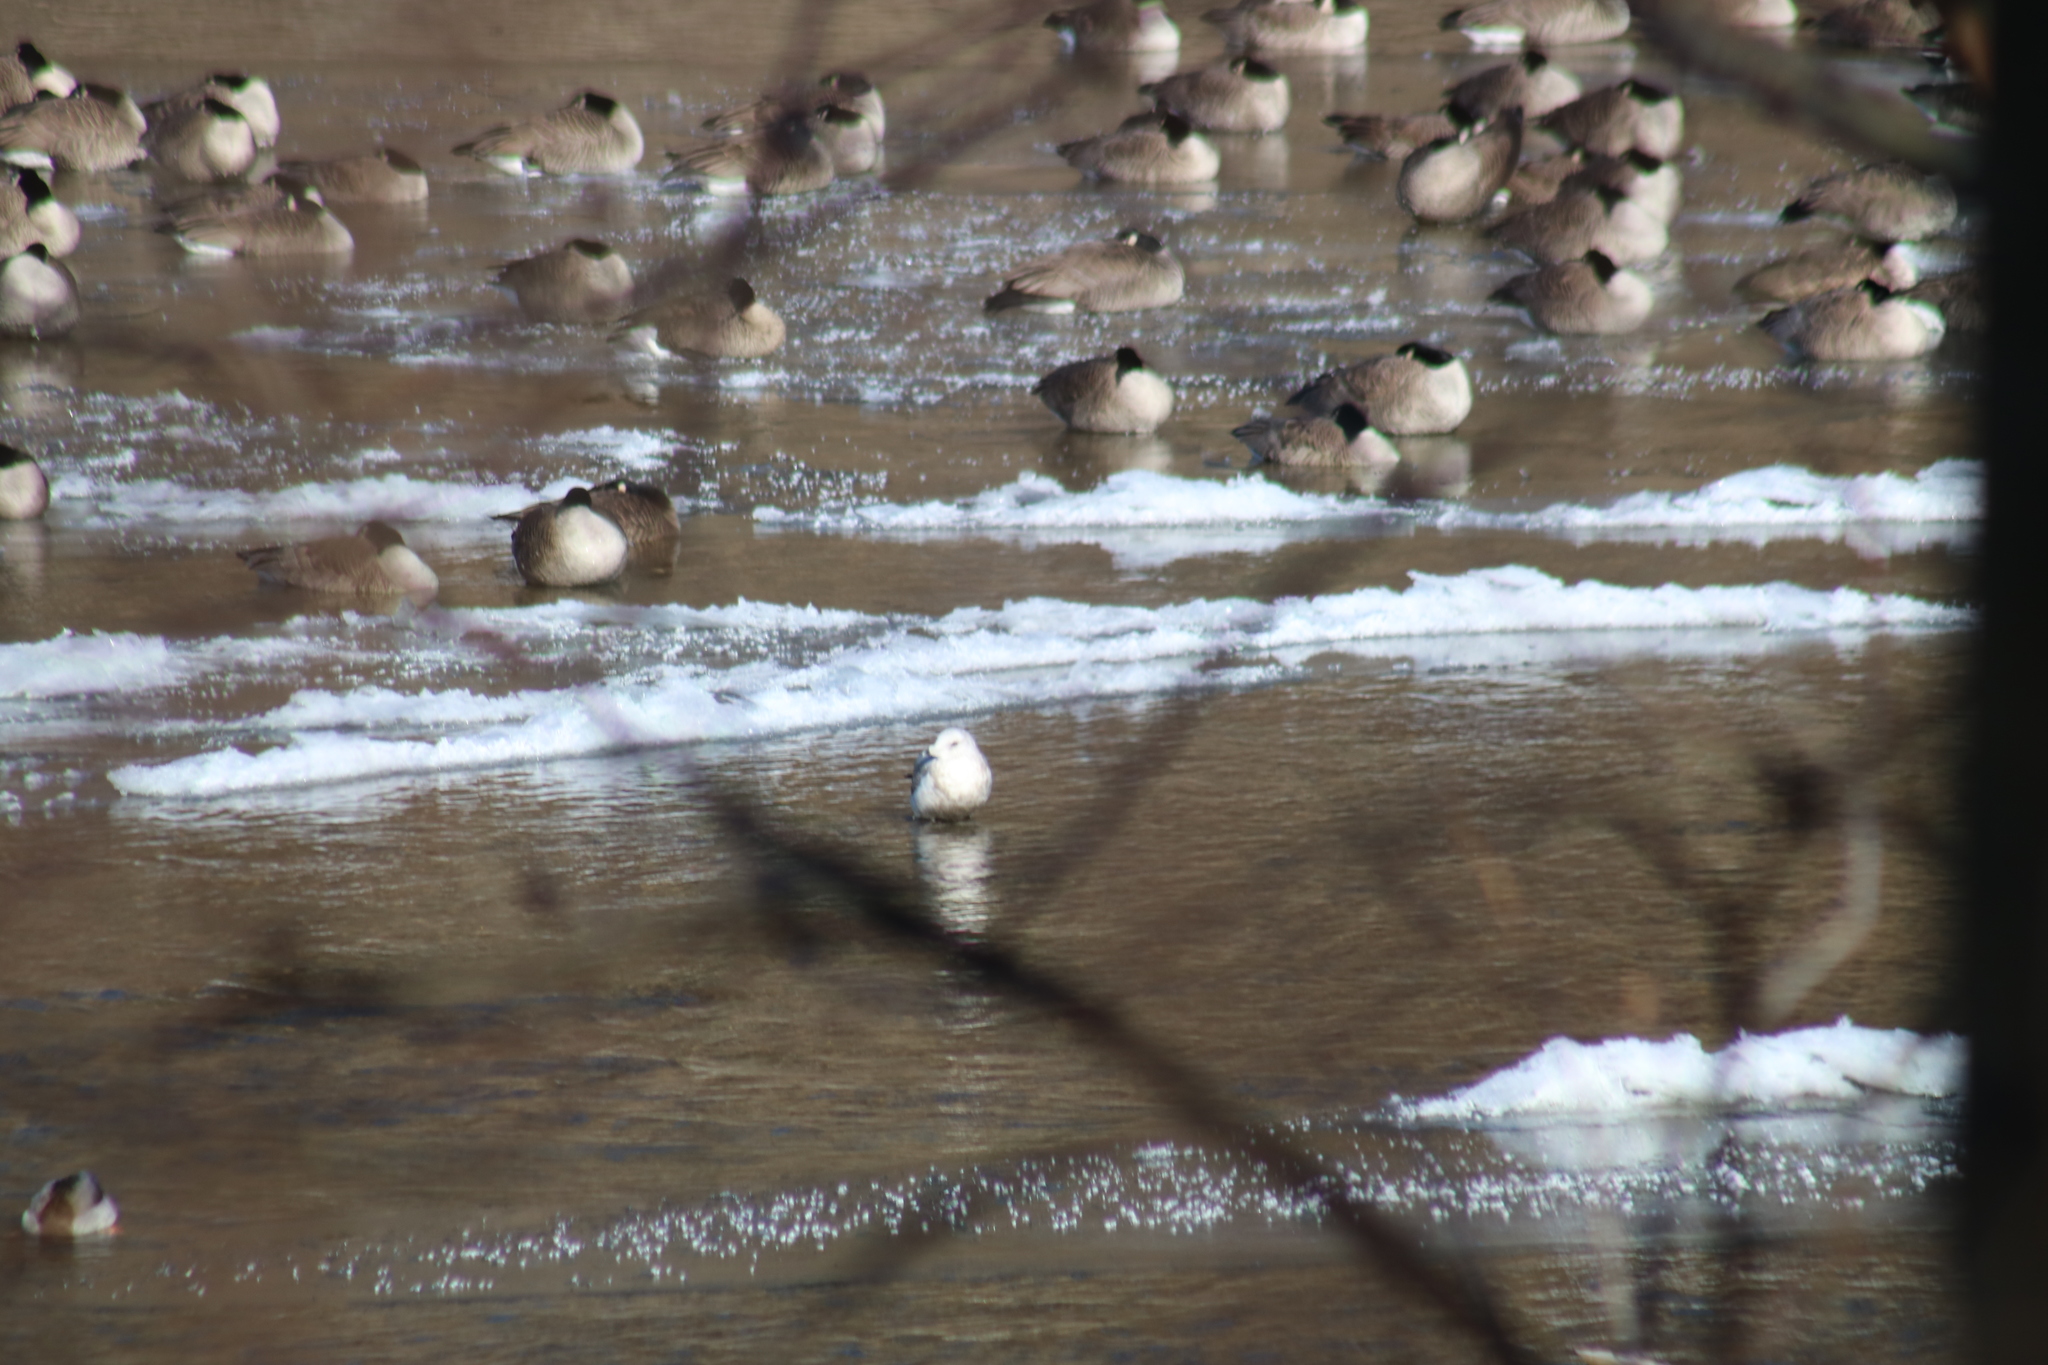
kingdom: Animalia
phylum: Chordata
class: Aves
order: Charadriiformes
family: Laridae
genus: Larus
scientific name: Larus delawarensis
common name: Ring-billed gull
